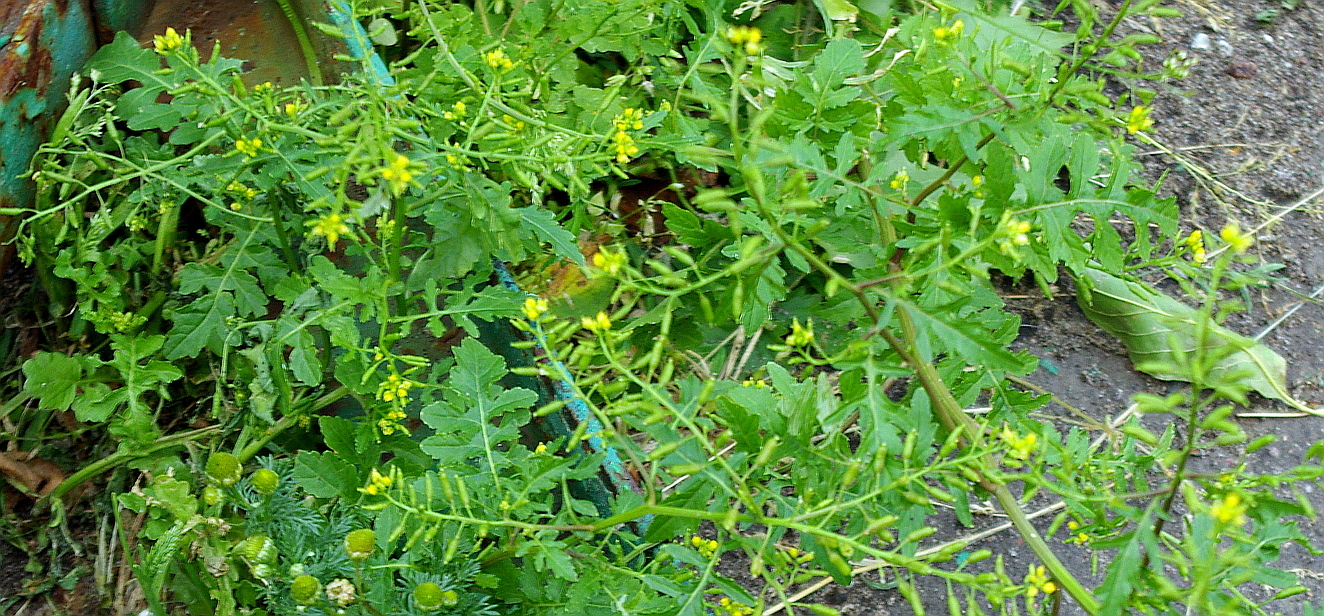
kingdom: Plantae
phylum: Tracheophyta
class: Magnoliopsida
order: Brassicales
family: Brassicaceae
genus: Rorippa
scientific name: Rorippa palustris
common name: Marsh yellow-cress
